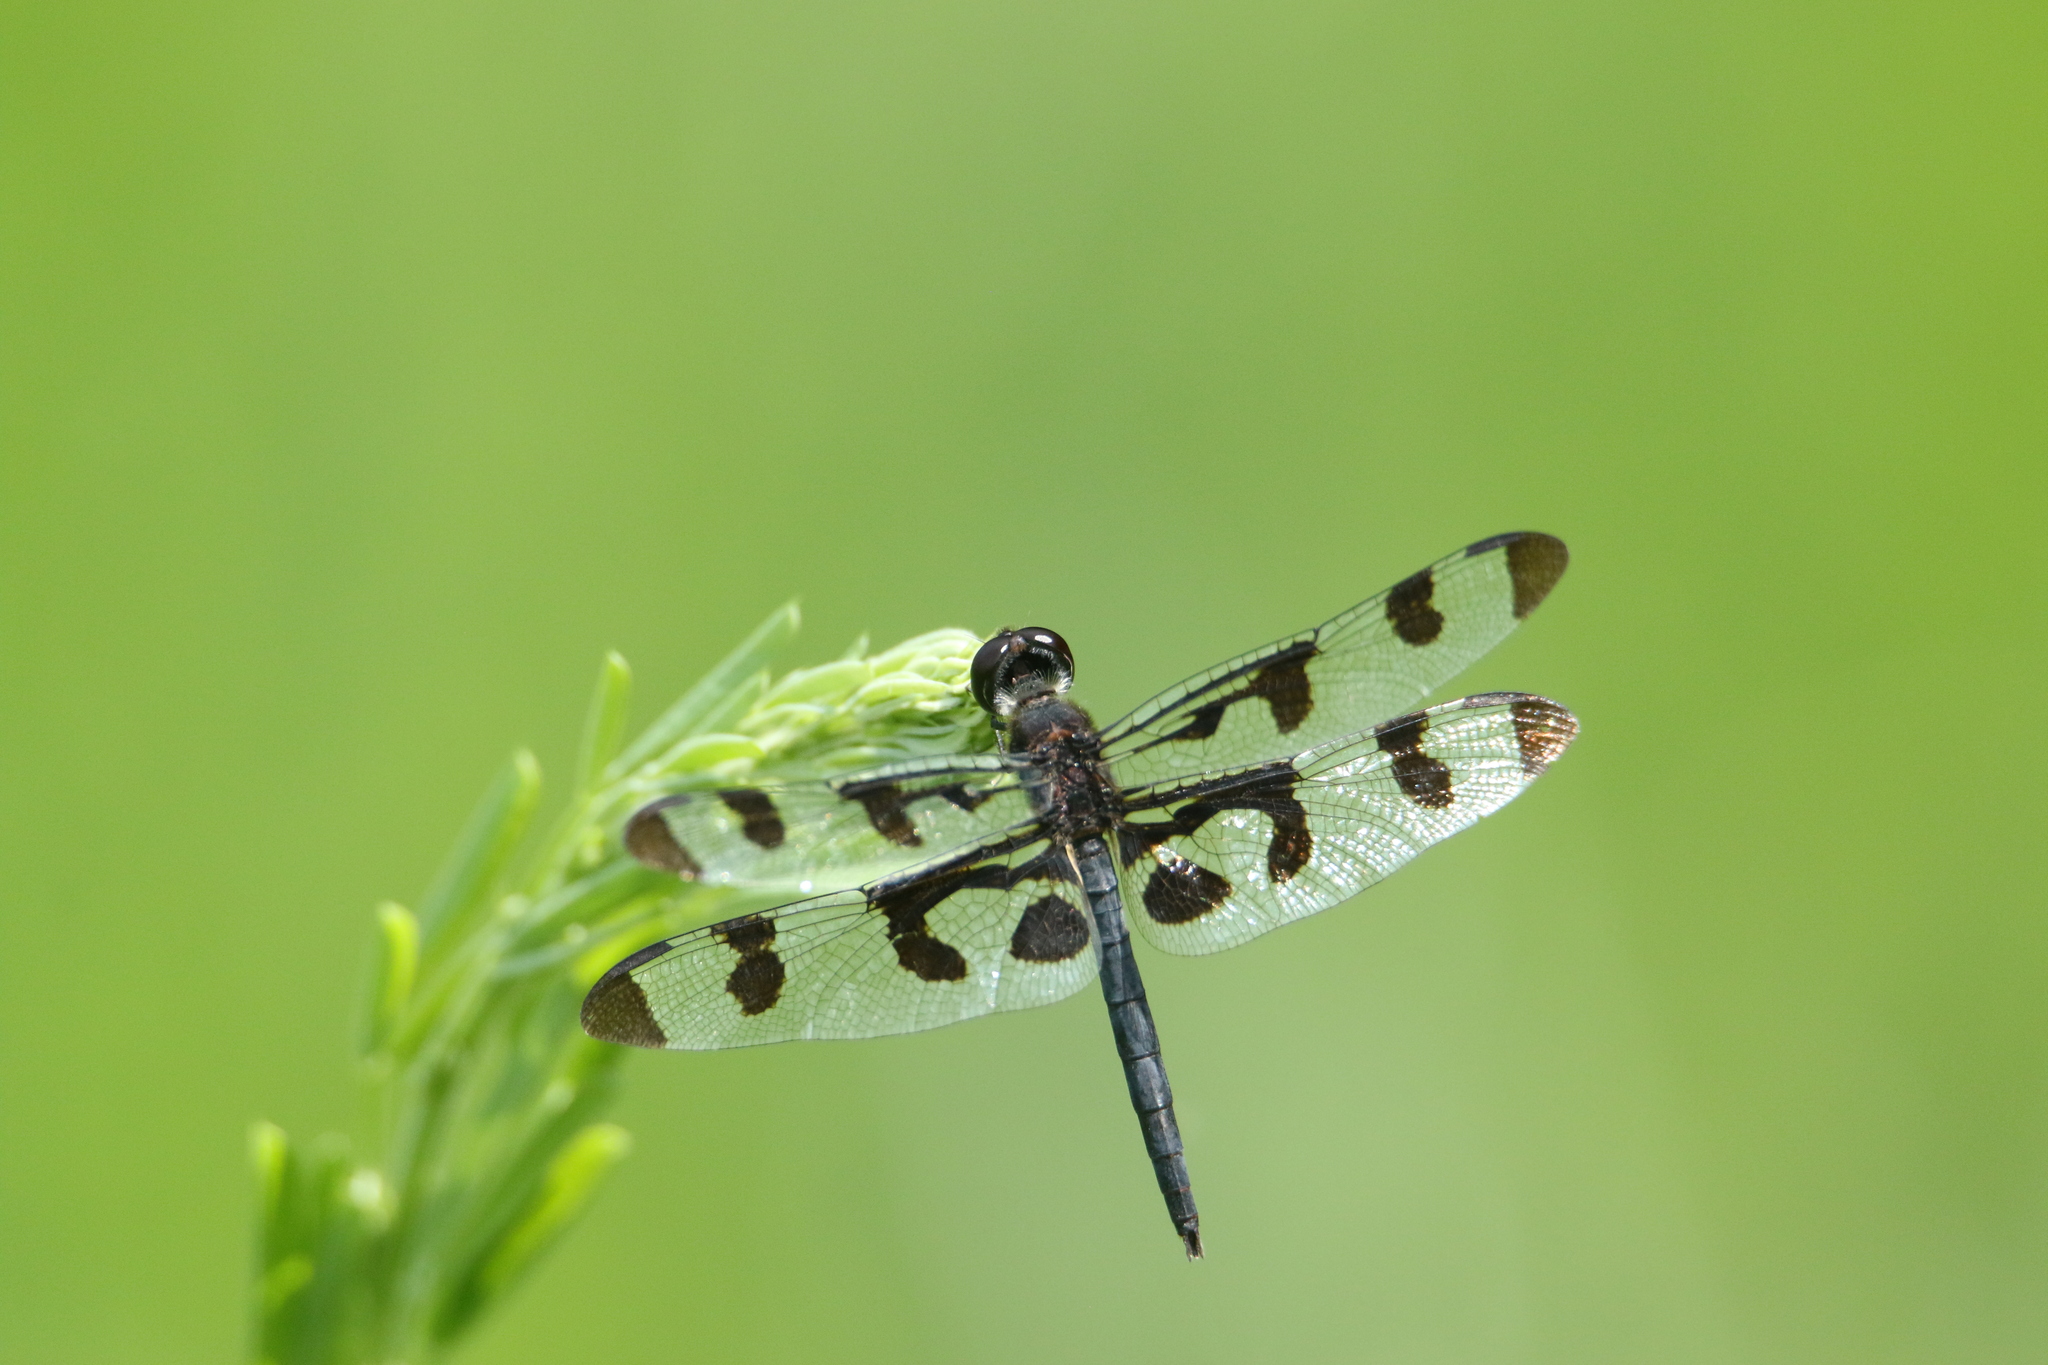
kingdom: Animalia
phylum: Arthropoda
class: Insecta
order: Odonata
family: Libellulidae
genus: Celithemis
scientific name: Celithemis fasciata
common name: Banded pennant
